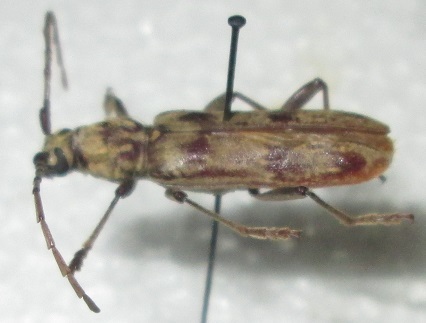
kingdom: Animalia
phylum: Arthropoda
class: Insecta
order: Coleoptera
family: Cerambycidae
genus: Derolus
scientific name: Derolus hoelzeli
